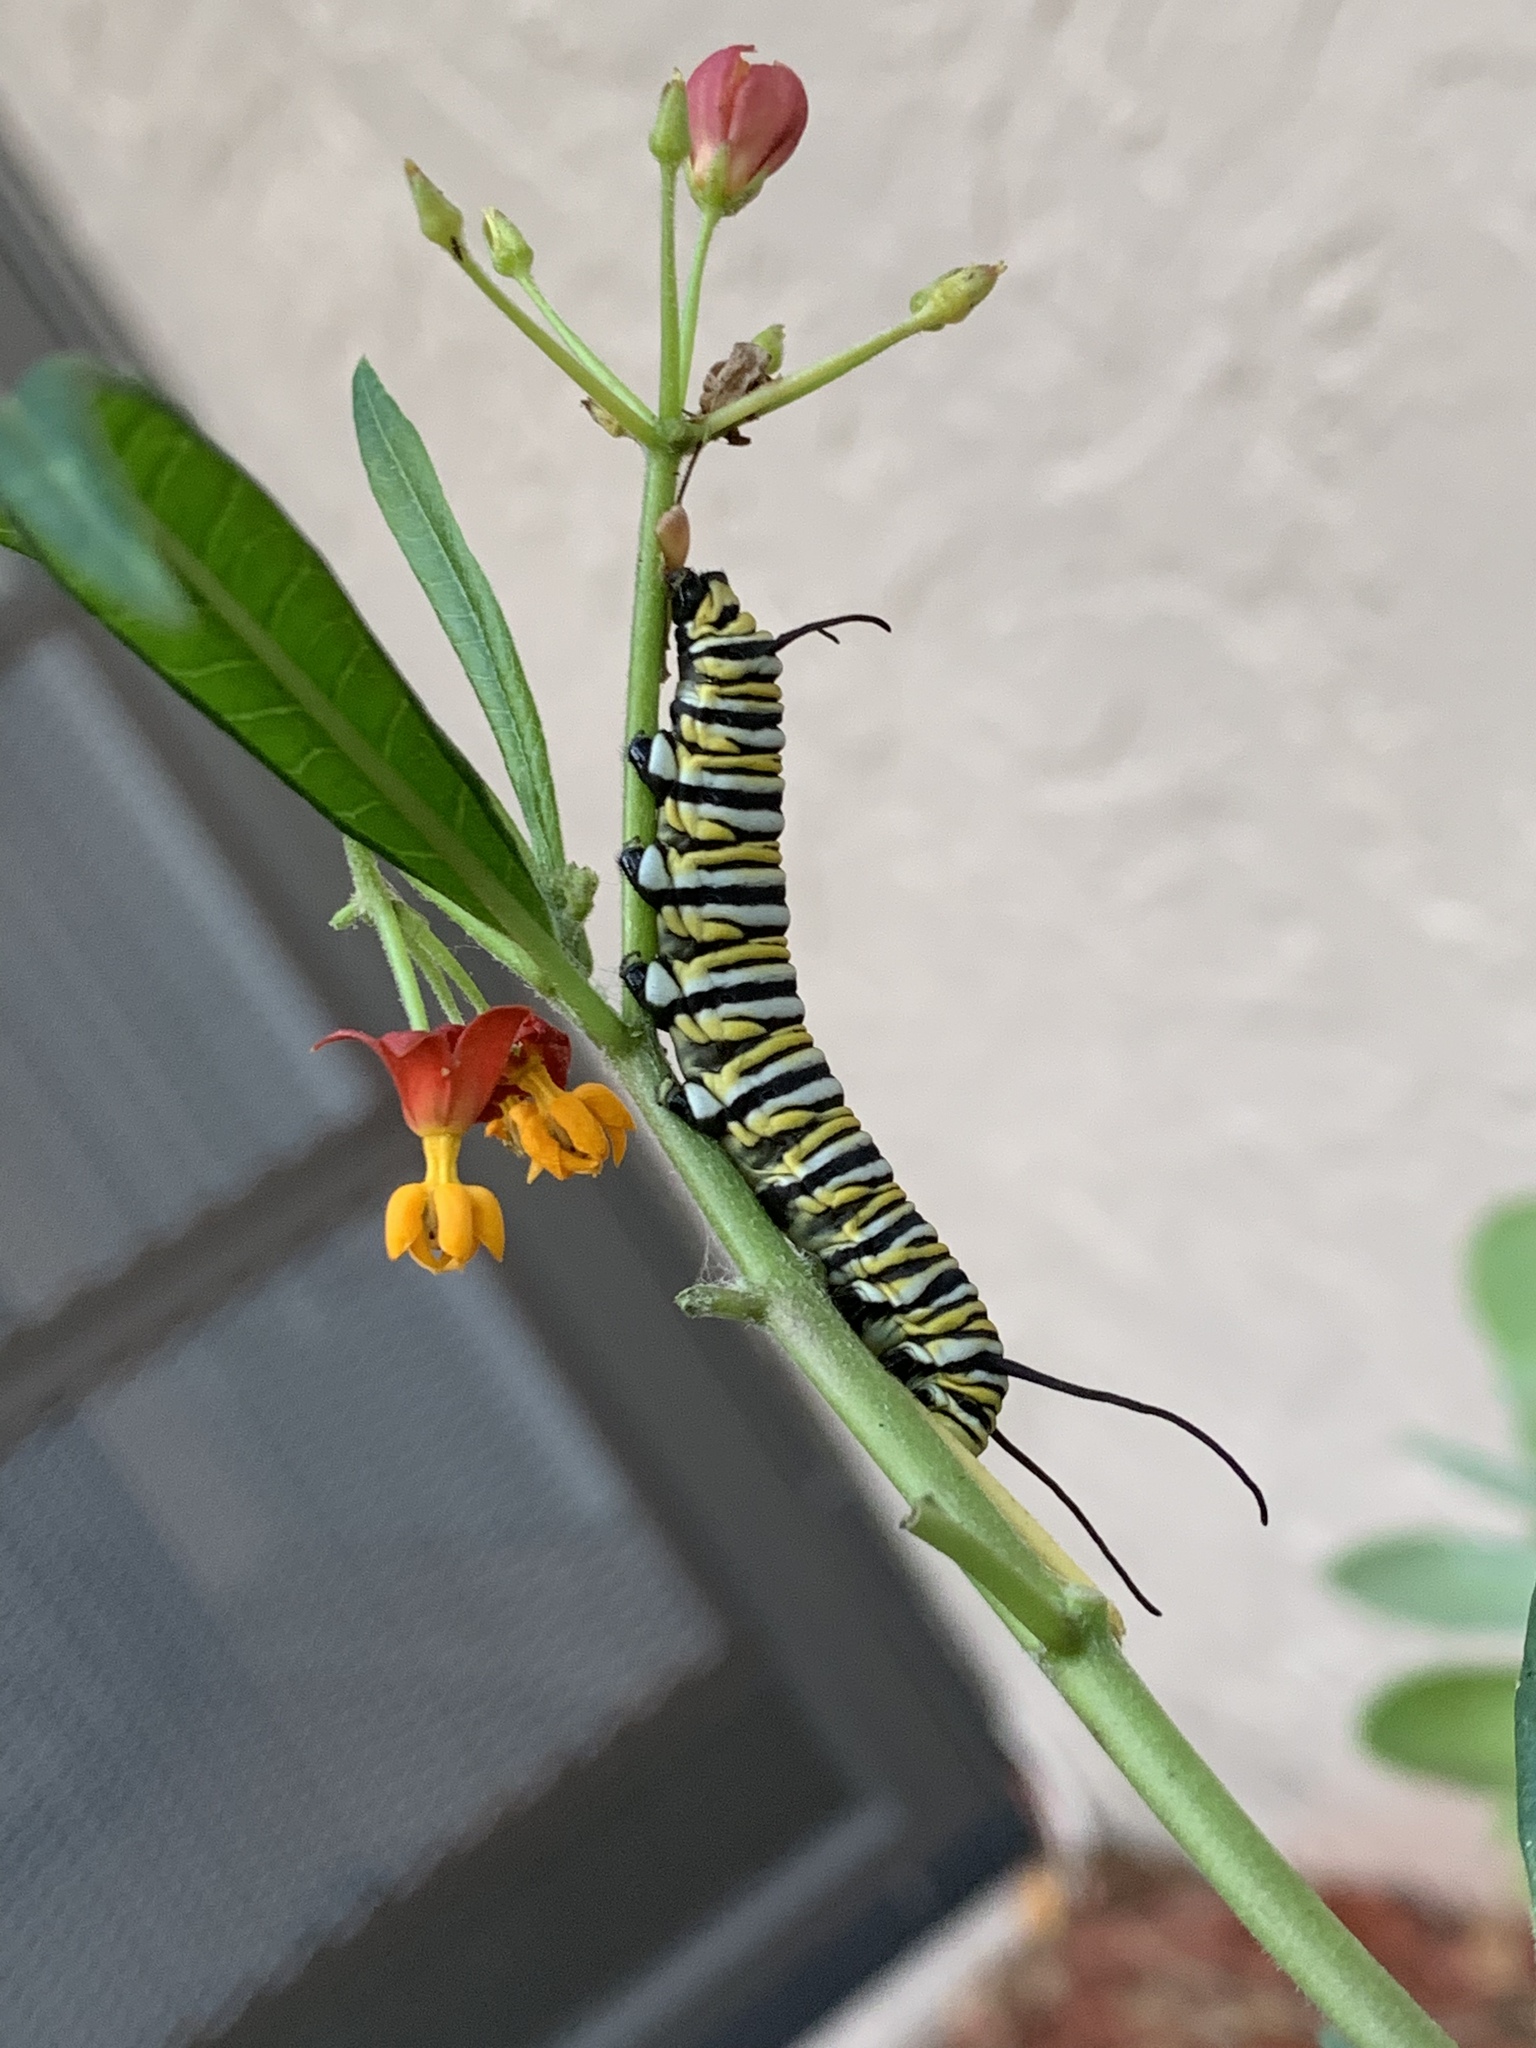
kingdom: Animalia
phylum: Arthropoda
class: Insecta
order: Lepidoptera
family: Nymphalidae
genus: Danaus
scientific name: Danaus plexippus
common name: Monarch
